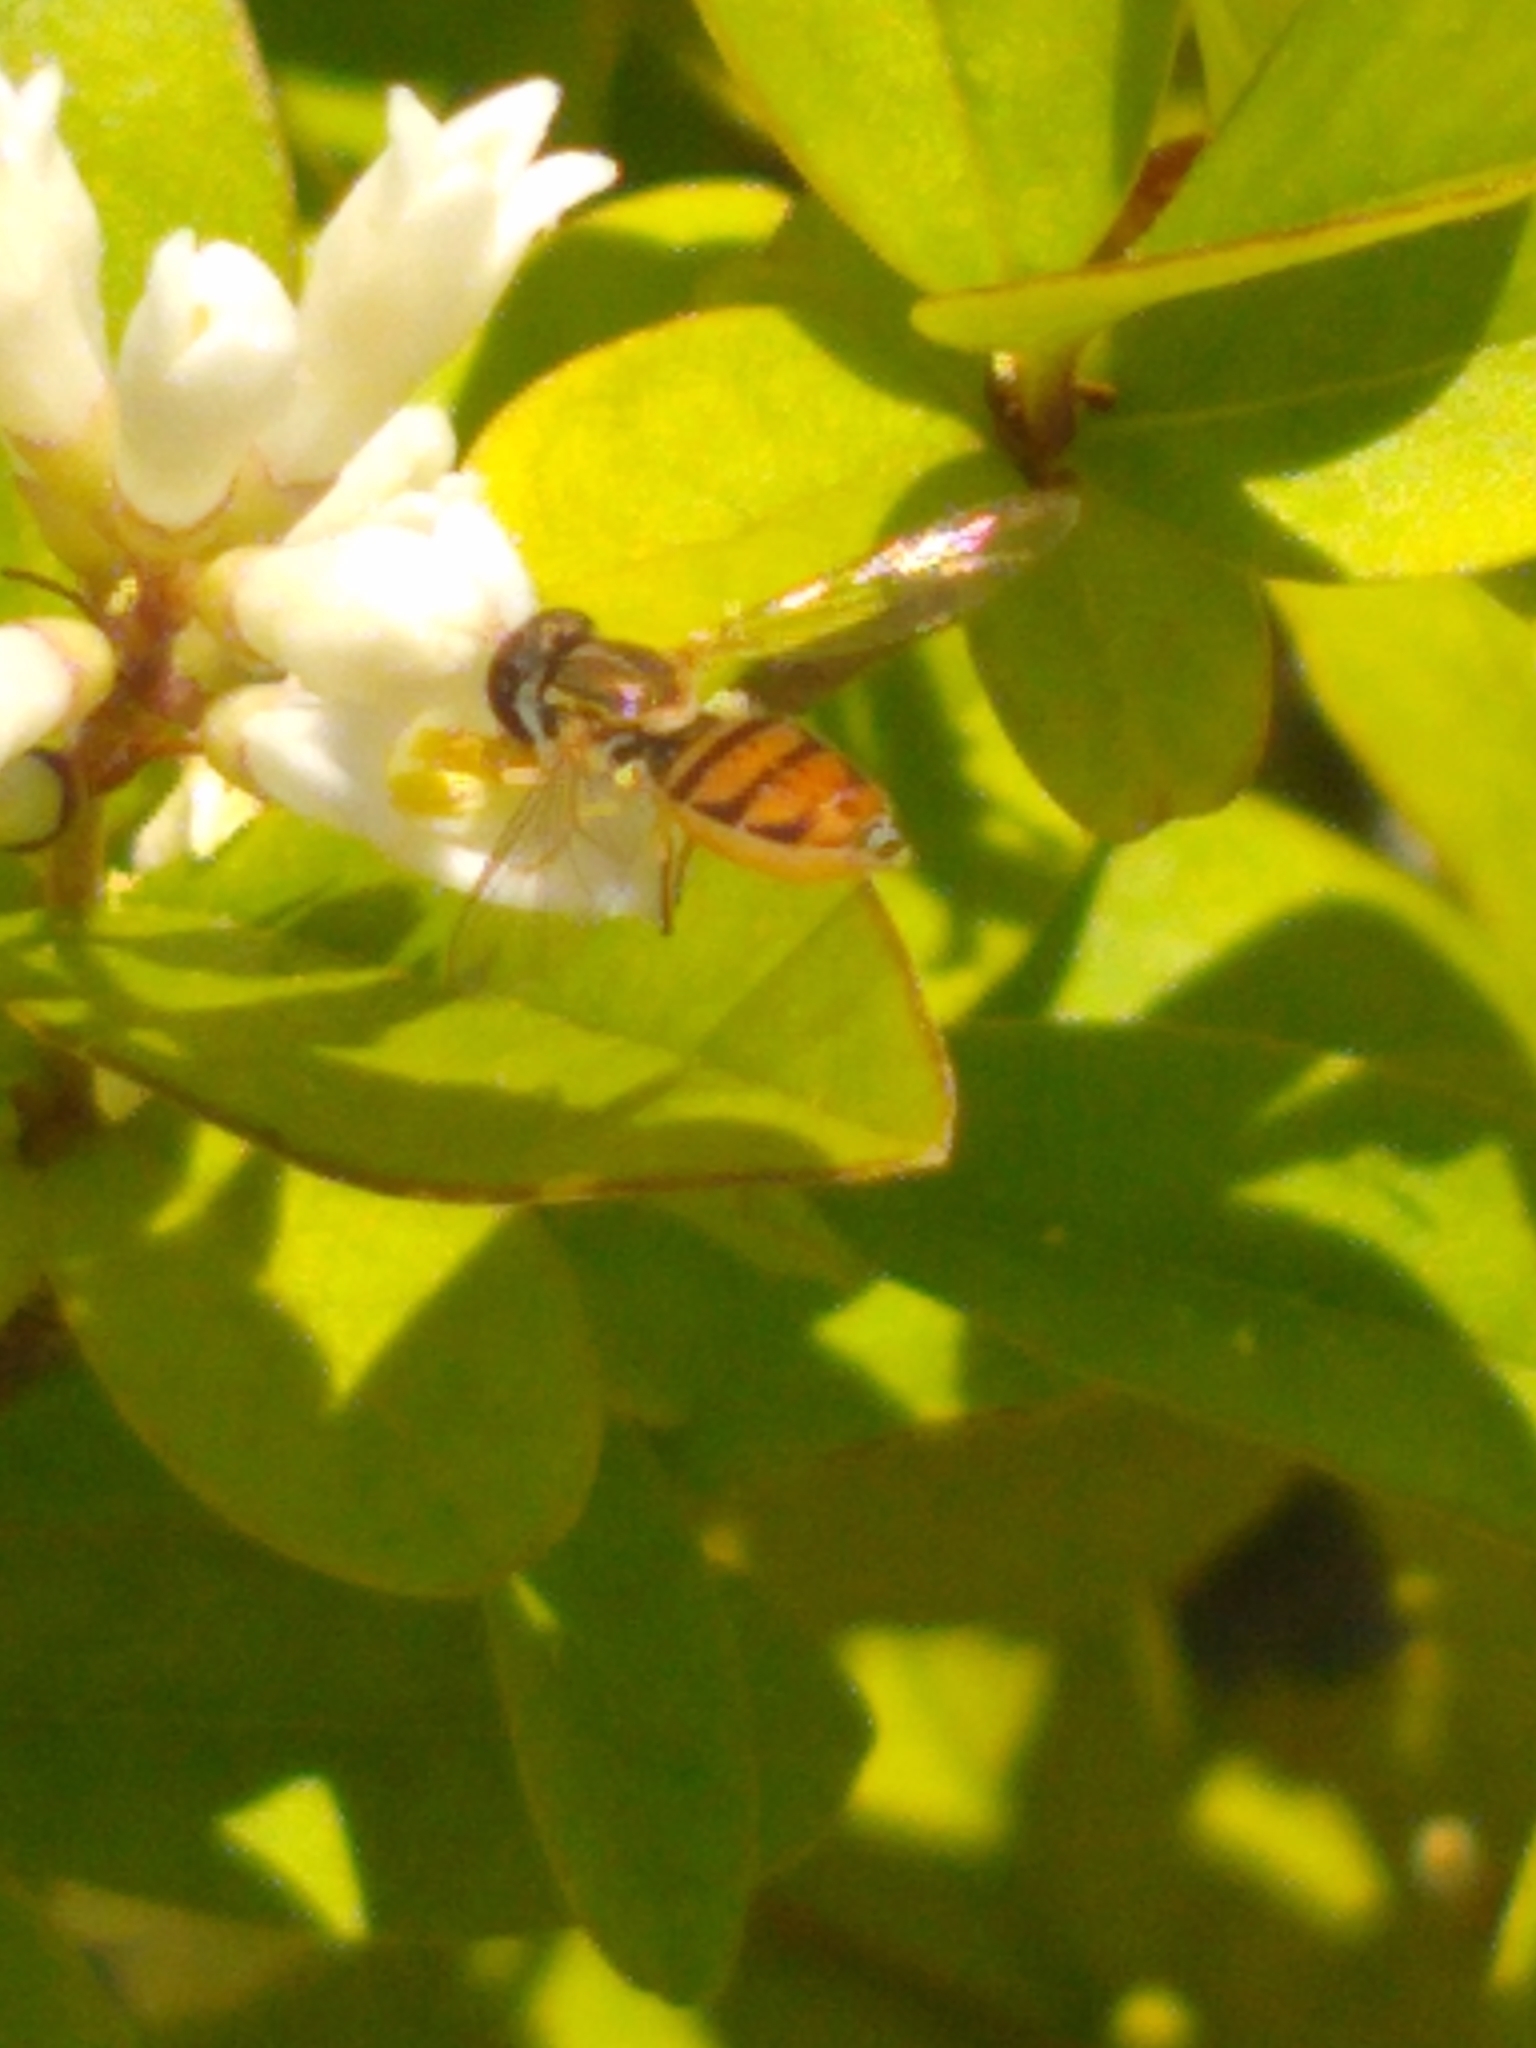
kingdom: Animalia
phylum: Arthropoda
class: Insecta
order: Diptera
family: Syrphidae
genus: Toxomerus
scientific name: Toxomerus marginatus
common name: Syrphid fly
